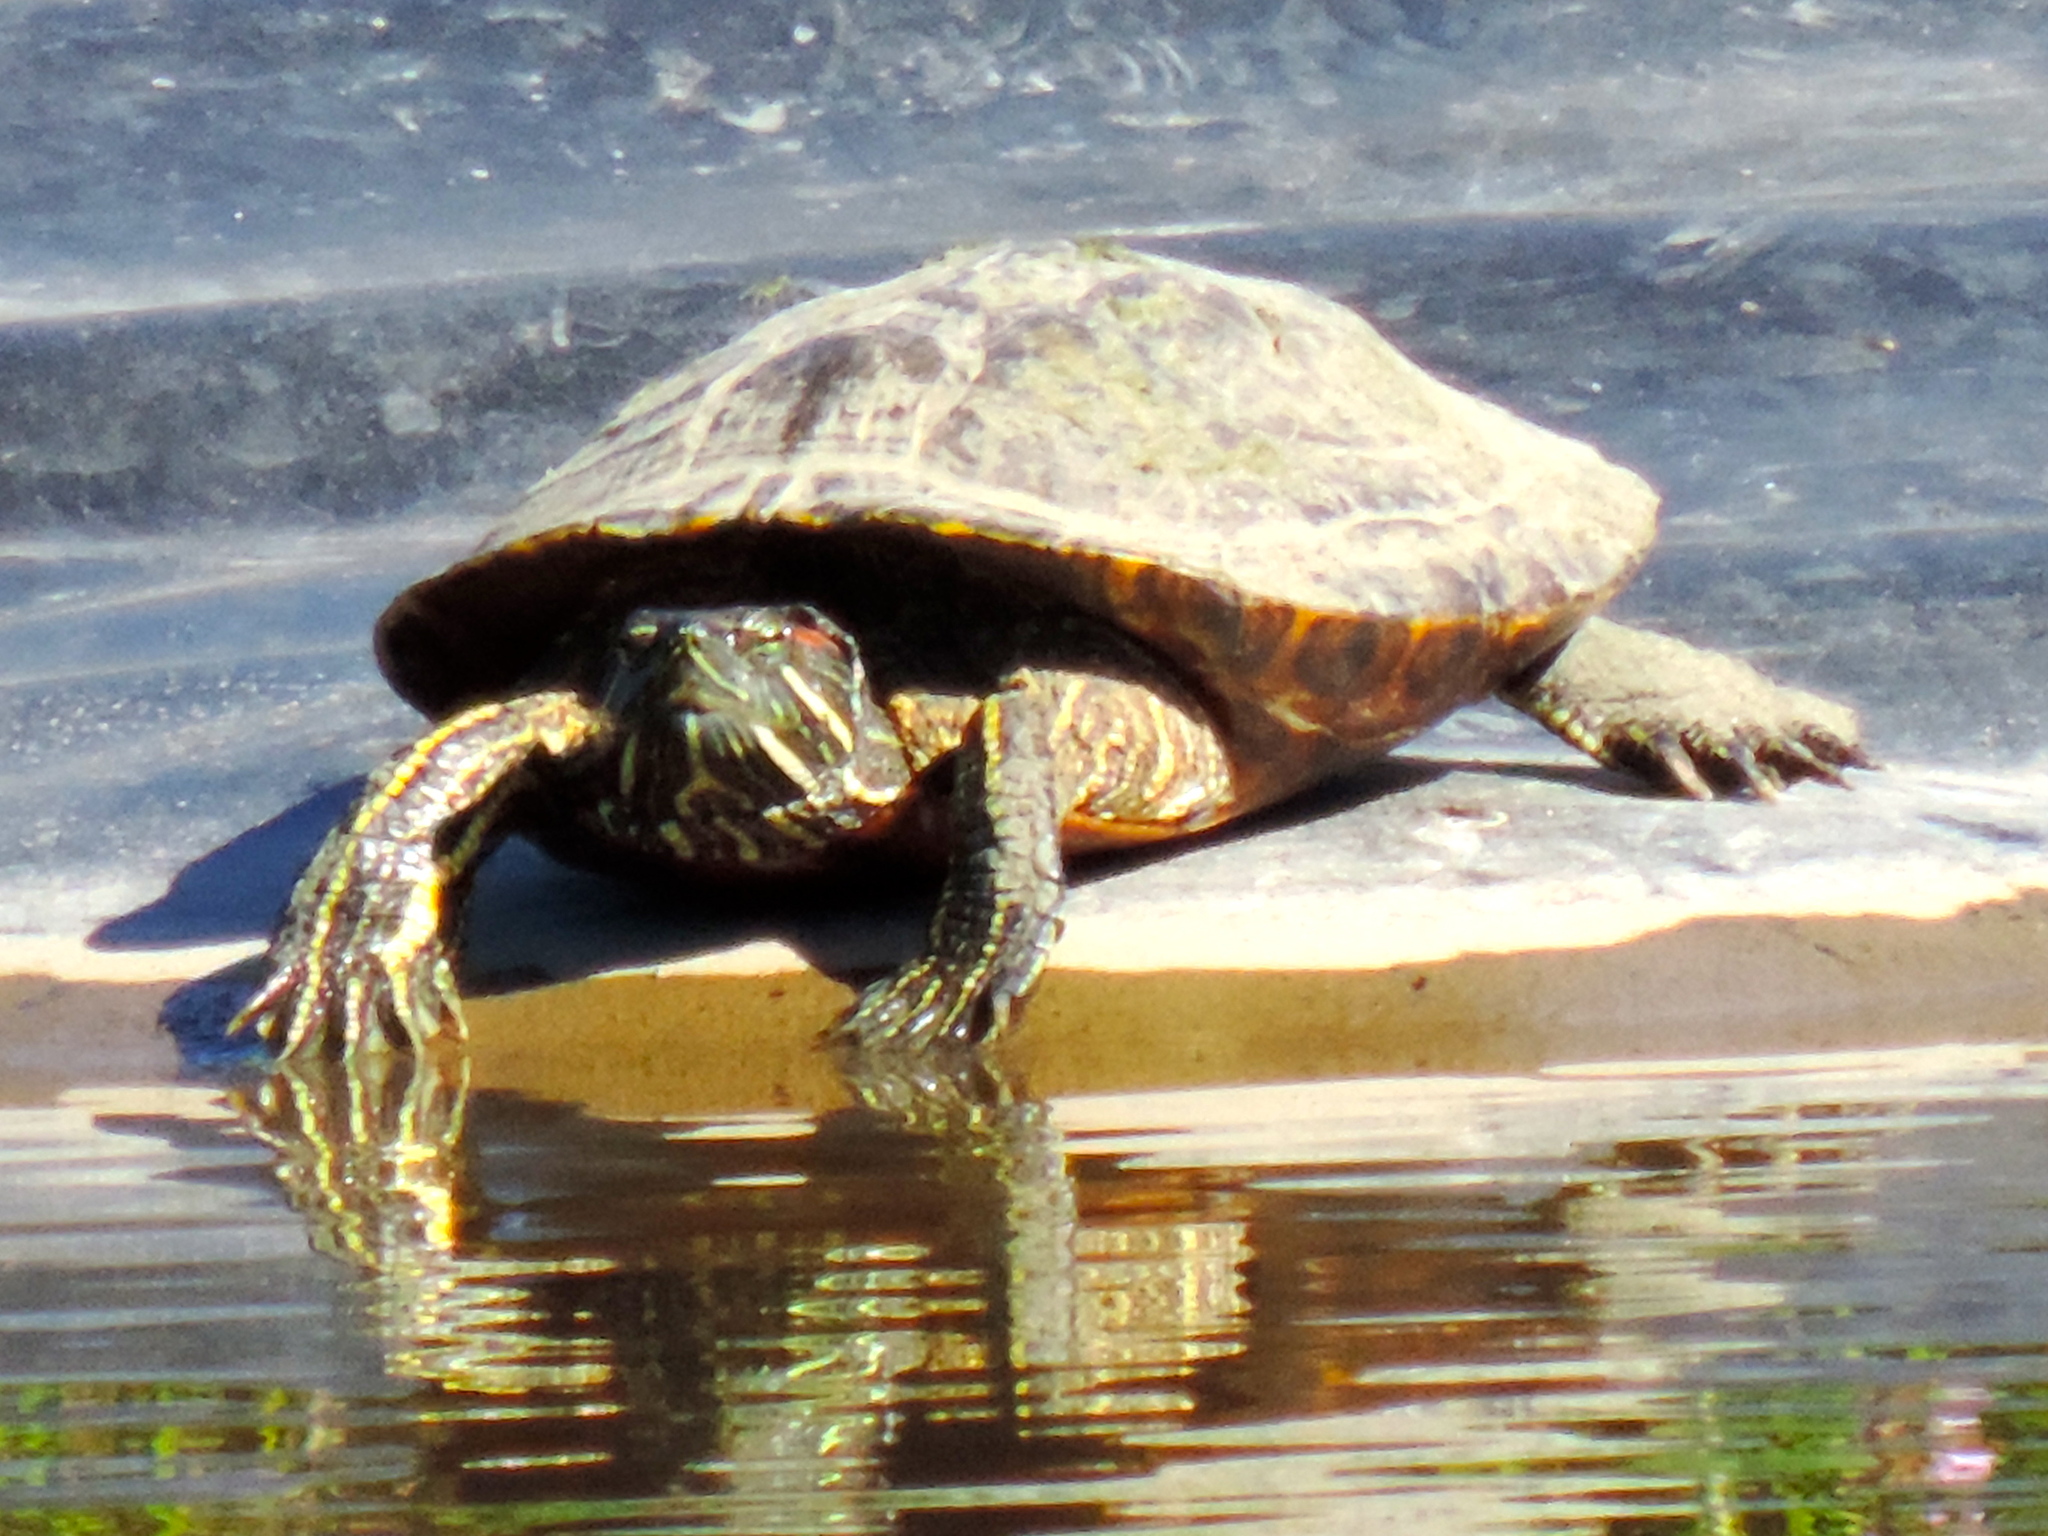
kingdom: Animalia
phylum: Chordata
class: Testudines
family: Emydidae
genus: Trachemys
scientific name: Trachemys scripta
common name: Slider
